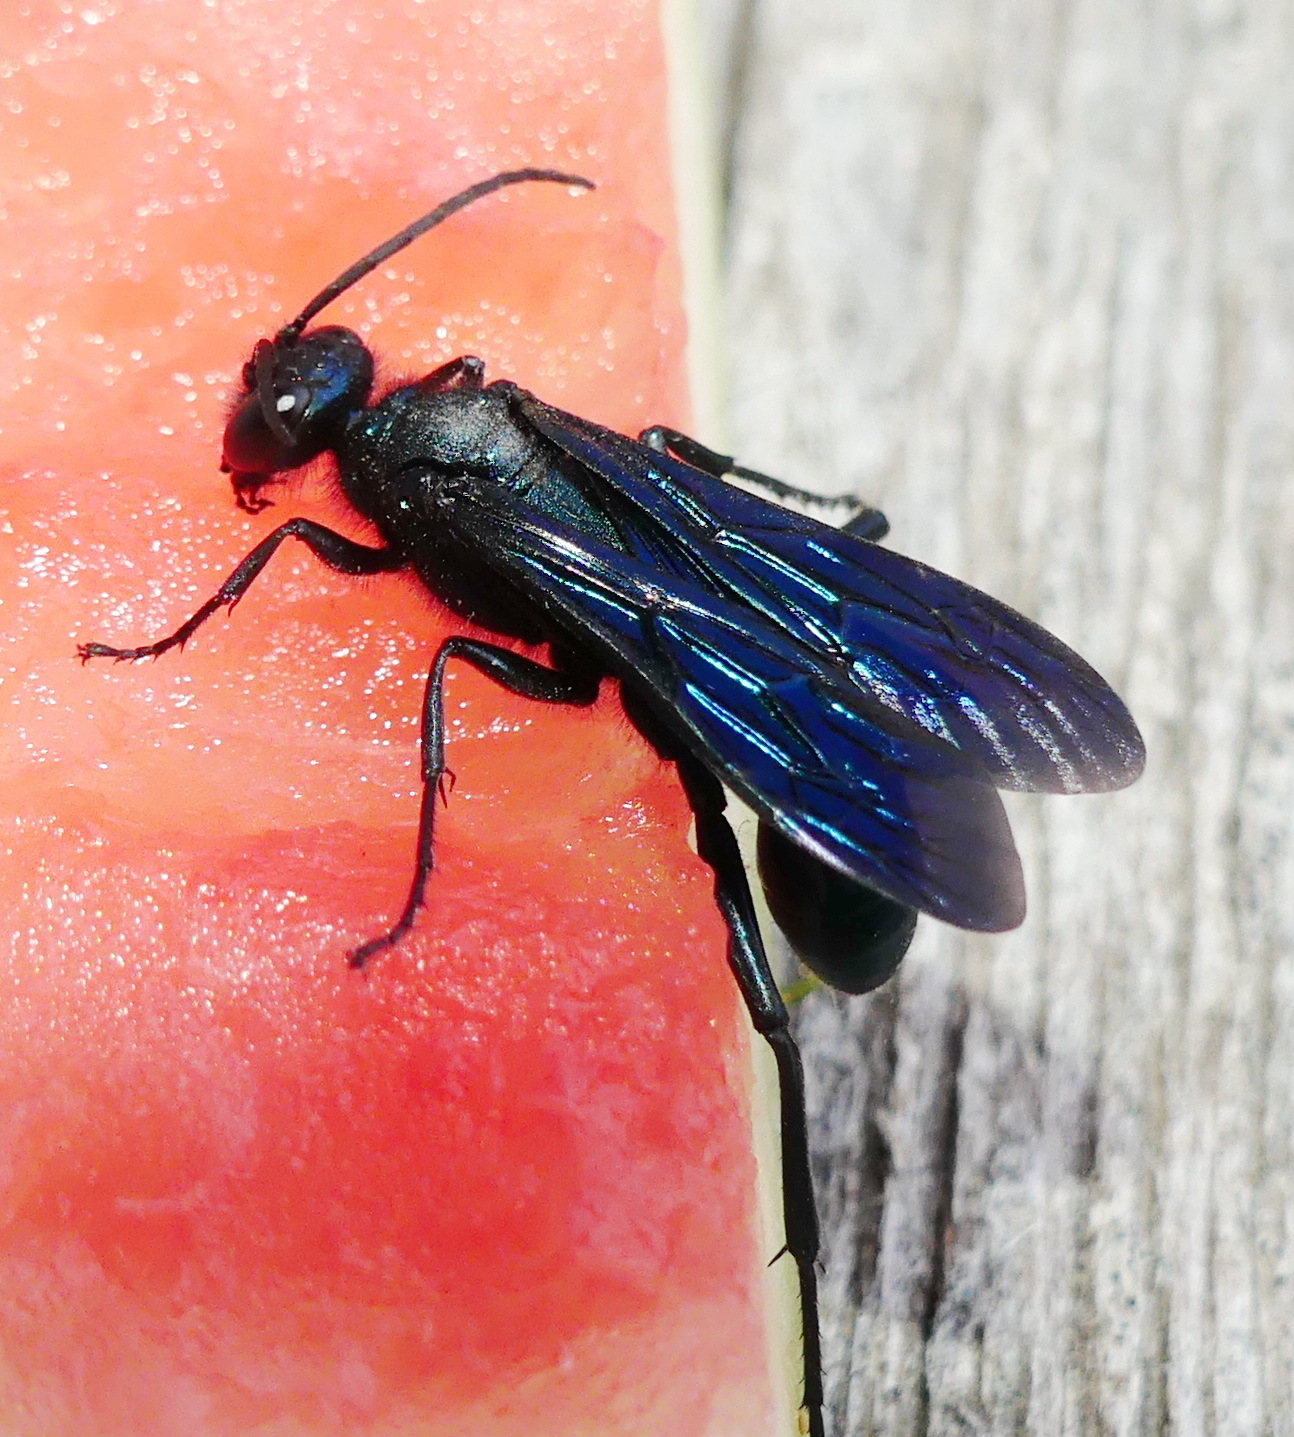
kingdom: Animalia
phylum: Arthropoda
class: Insecta
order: Hymenoptera
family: Sphecidae
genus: Chalybion
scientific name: Chalybion californicum
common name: Mud dauber
